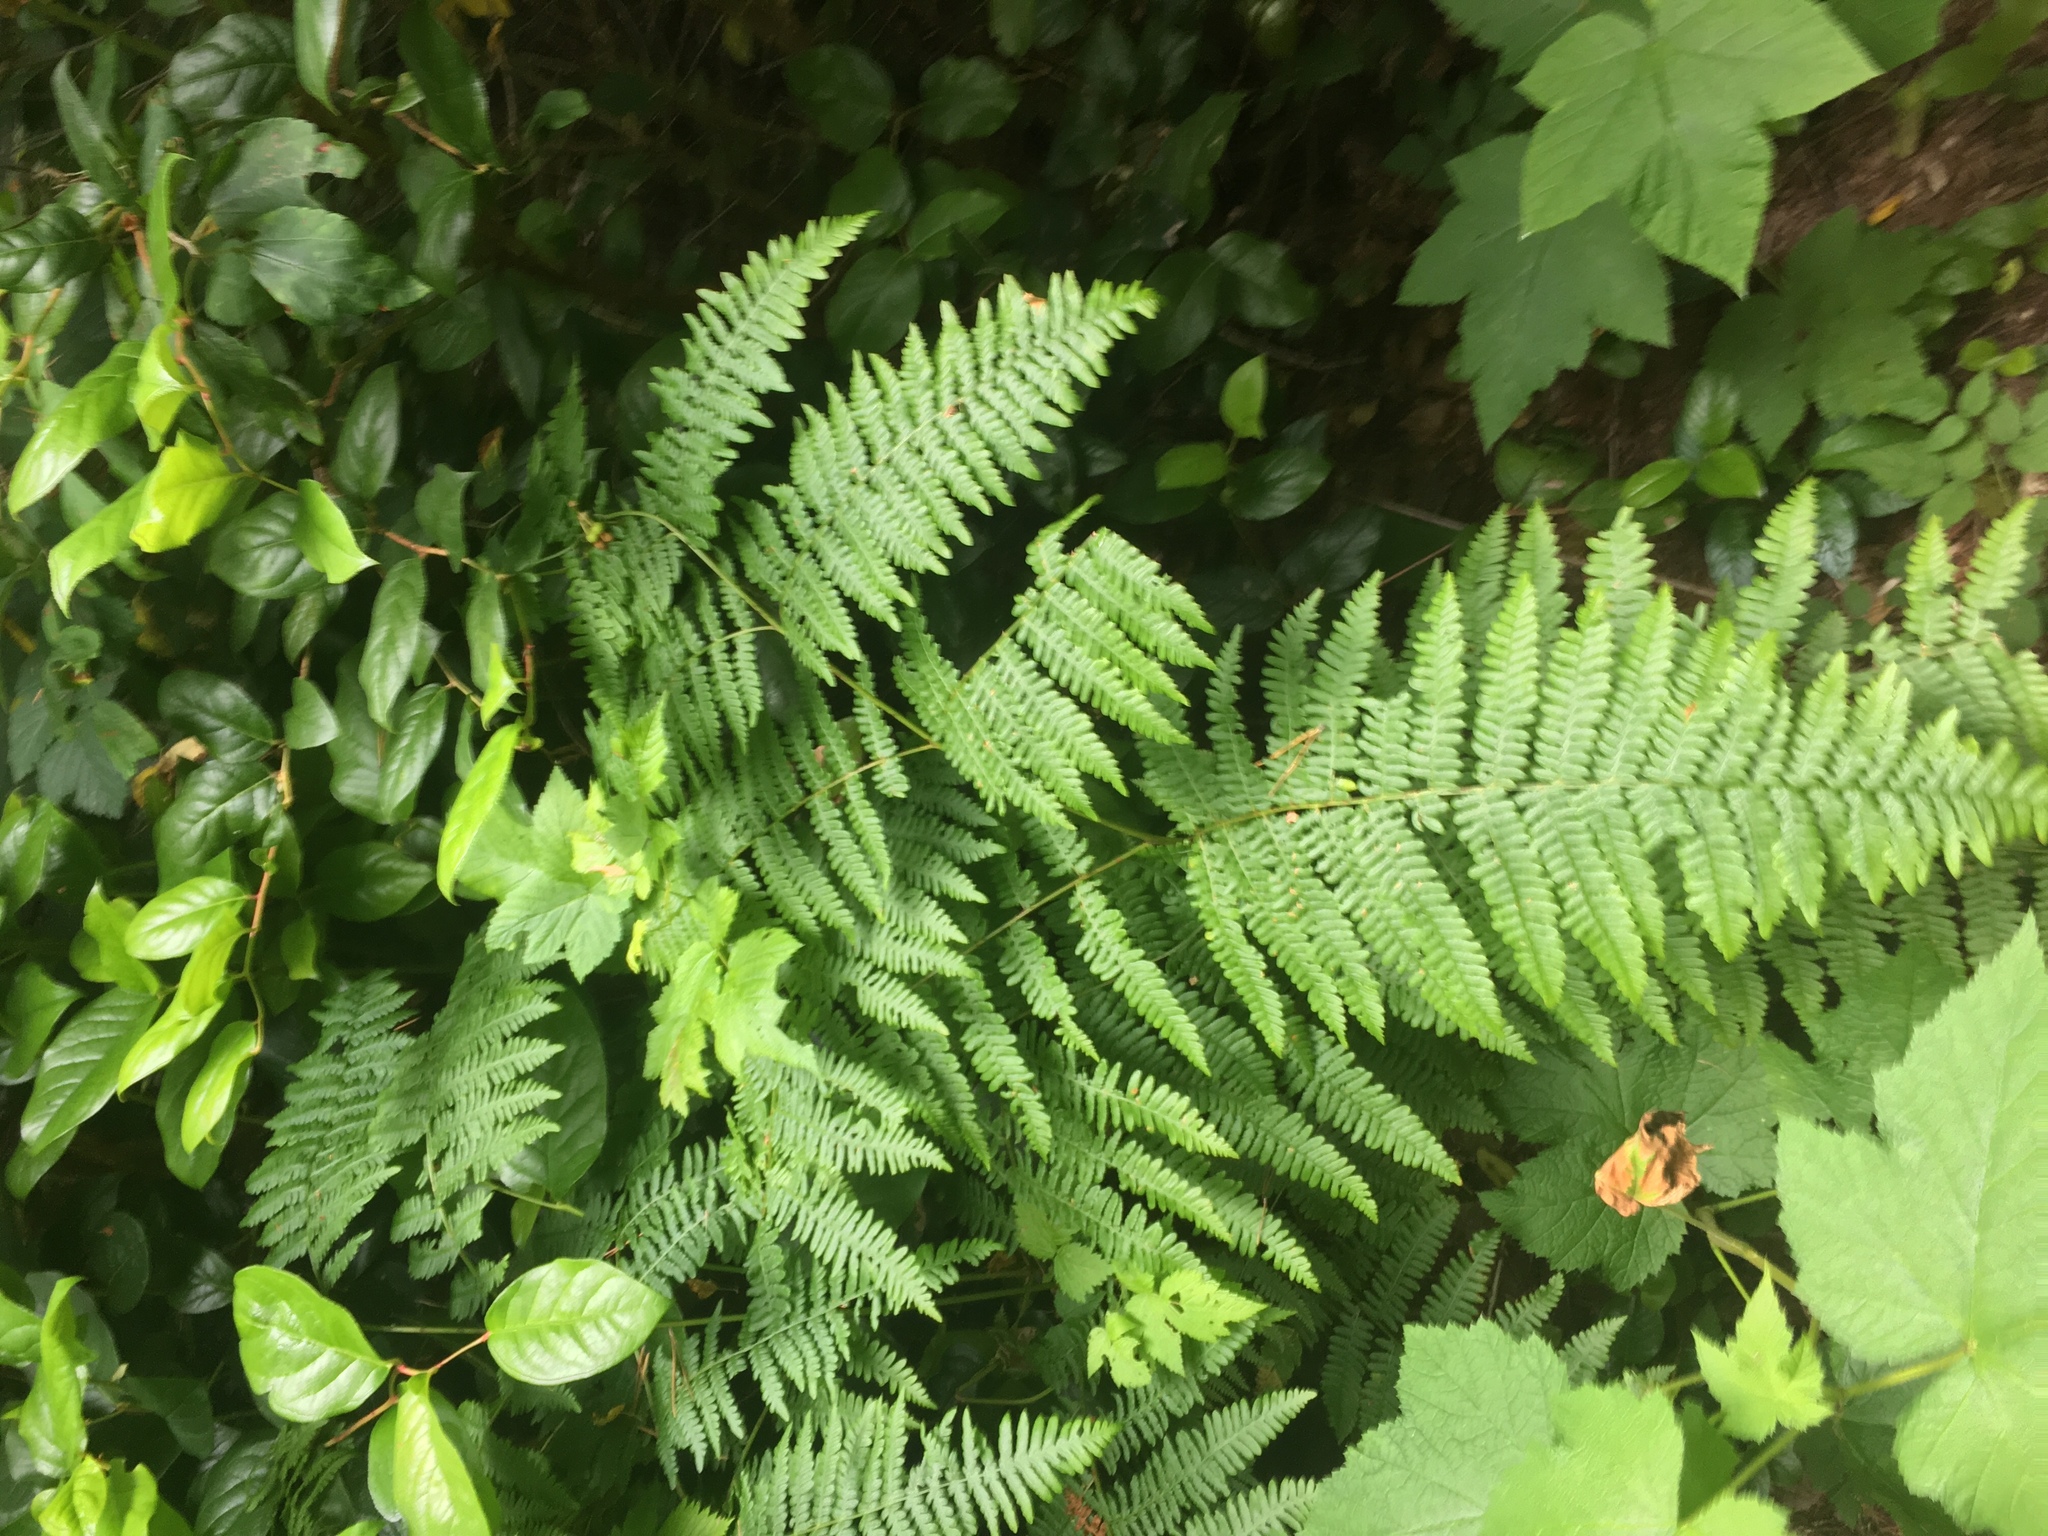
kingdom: Plantae
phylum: Tracheophyta
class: Polypodiopsida
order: Polypodiales
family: Dennstaedtiaceae
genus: Pteridium
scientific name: Pteridium aquilinum
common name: Bracken
